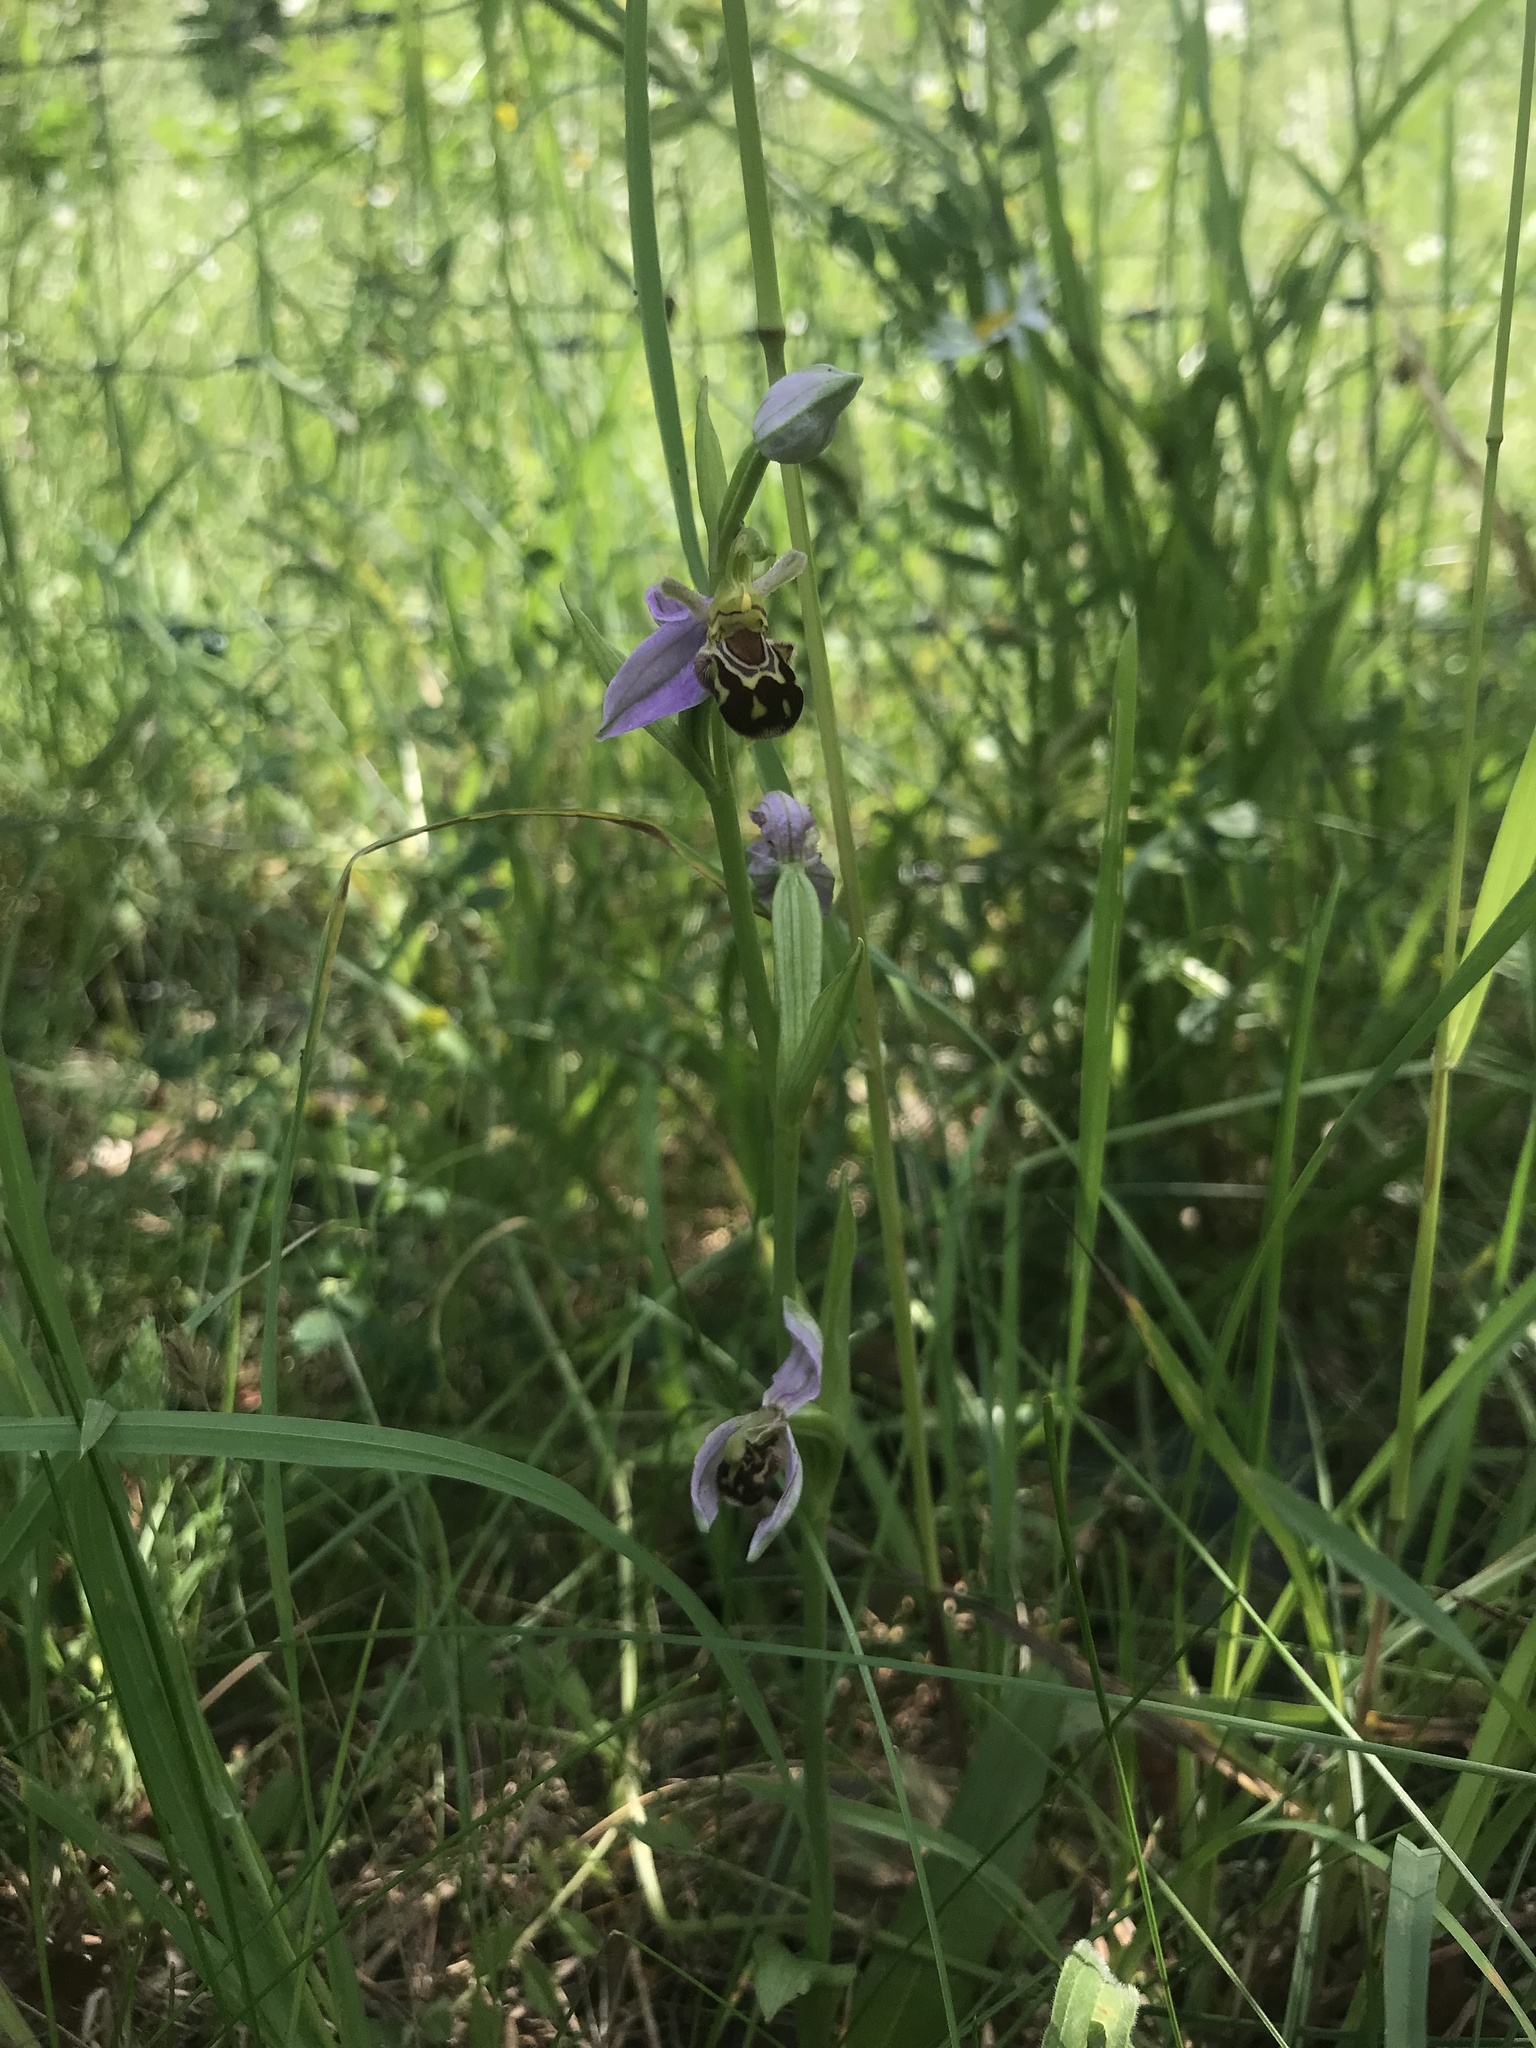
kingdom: Plantae
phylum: Tracheophyta
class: Liliopsida
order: Asparagales
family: Orchidaceae
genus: Ophrys
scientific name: Ophrys apifera
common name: Bee orchid
